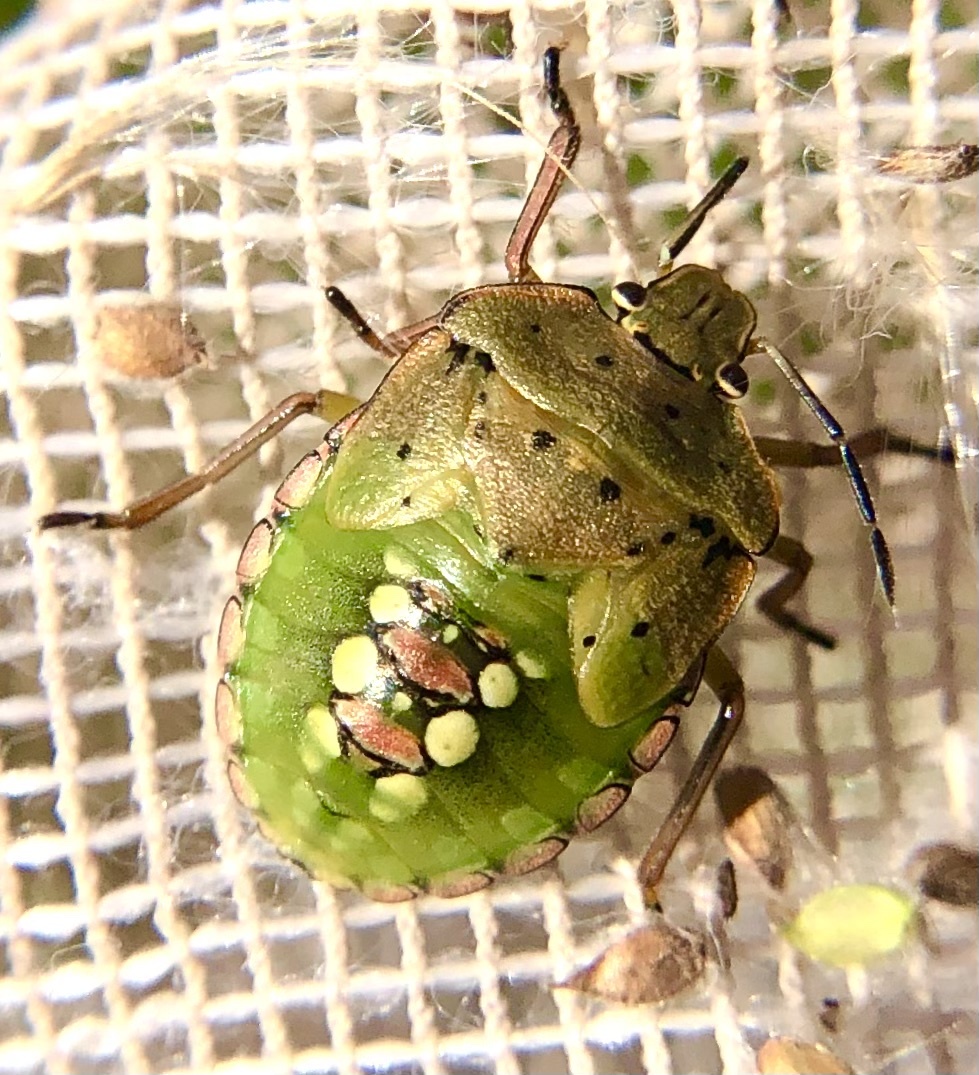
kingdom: Animalia
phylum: Arthropoda
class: Insecta
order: Hemiptera
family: Pentatomidae
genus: Nezara
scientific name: Nezara viridula
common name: Southern green stink bug
